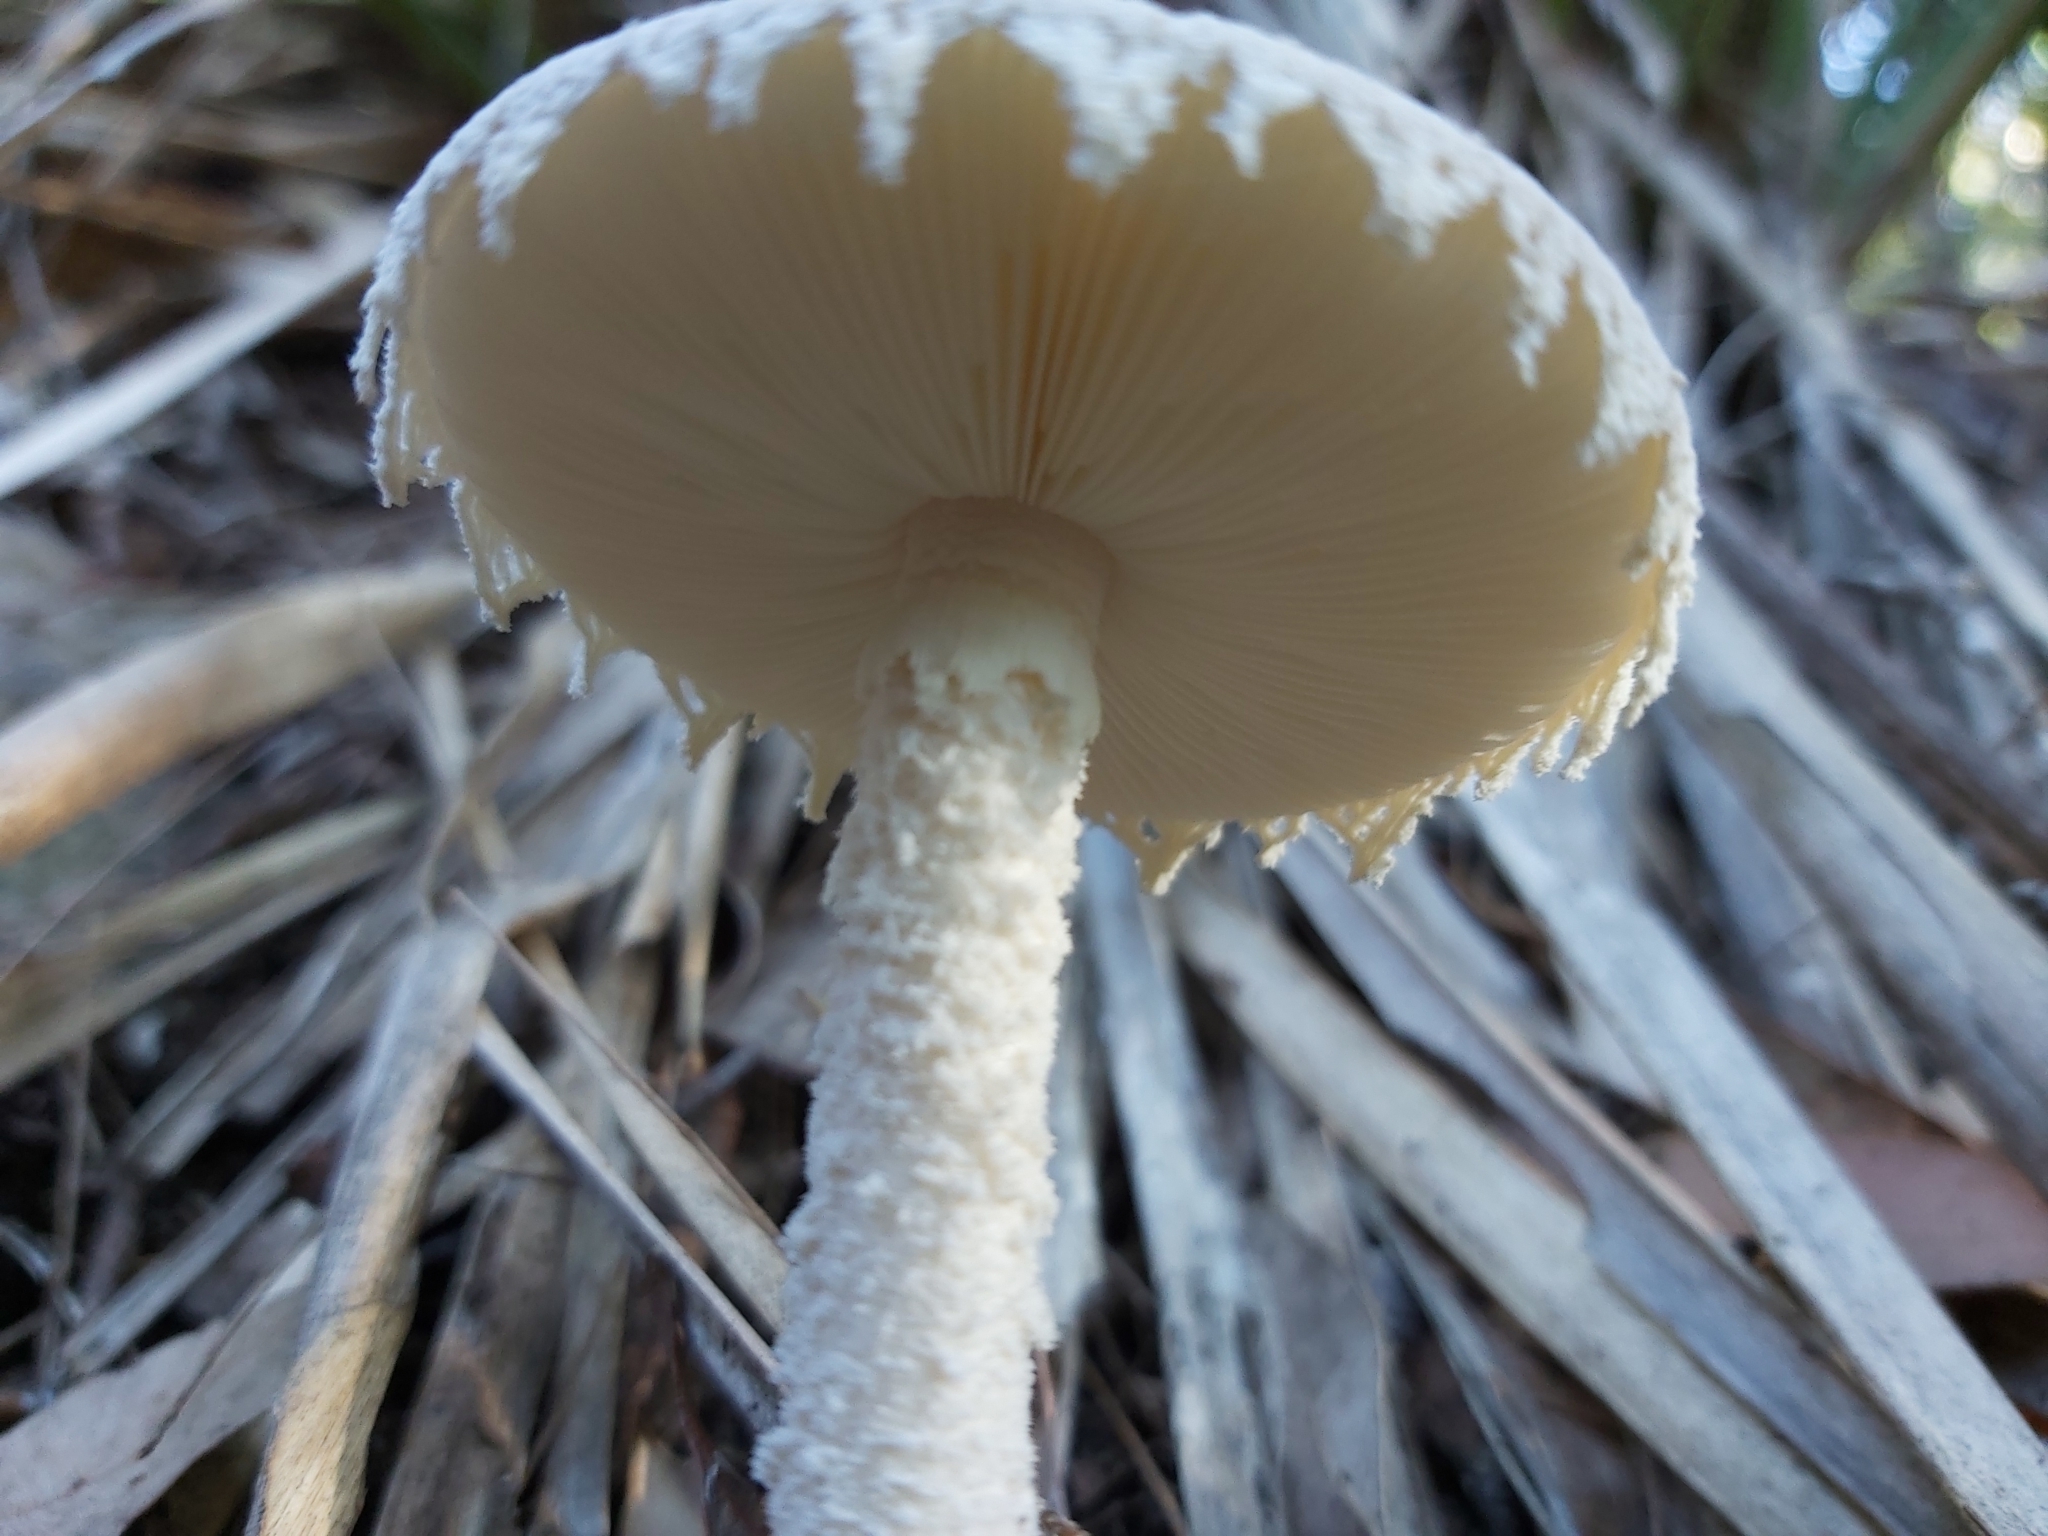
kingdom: Fungi
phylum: Basidiomycota
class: Agaricomycetes
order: Agaricales
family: Amanitaceae
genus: Amanita
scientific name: Amanita farinacea
